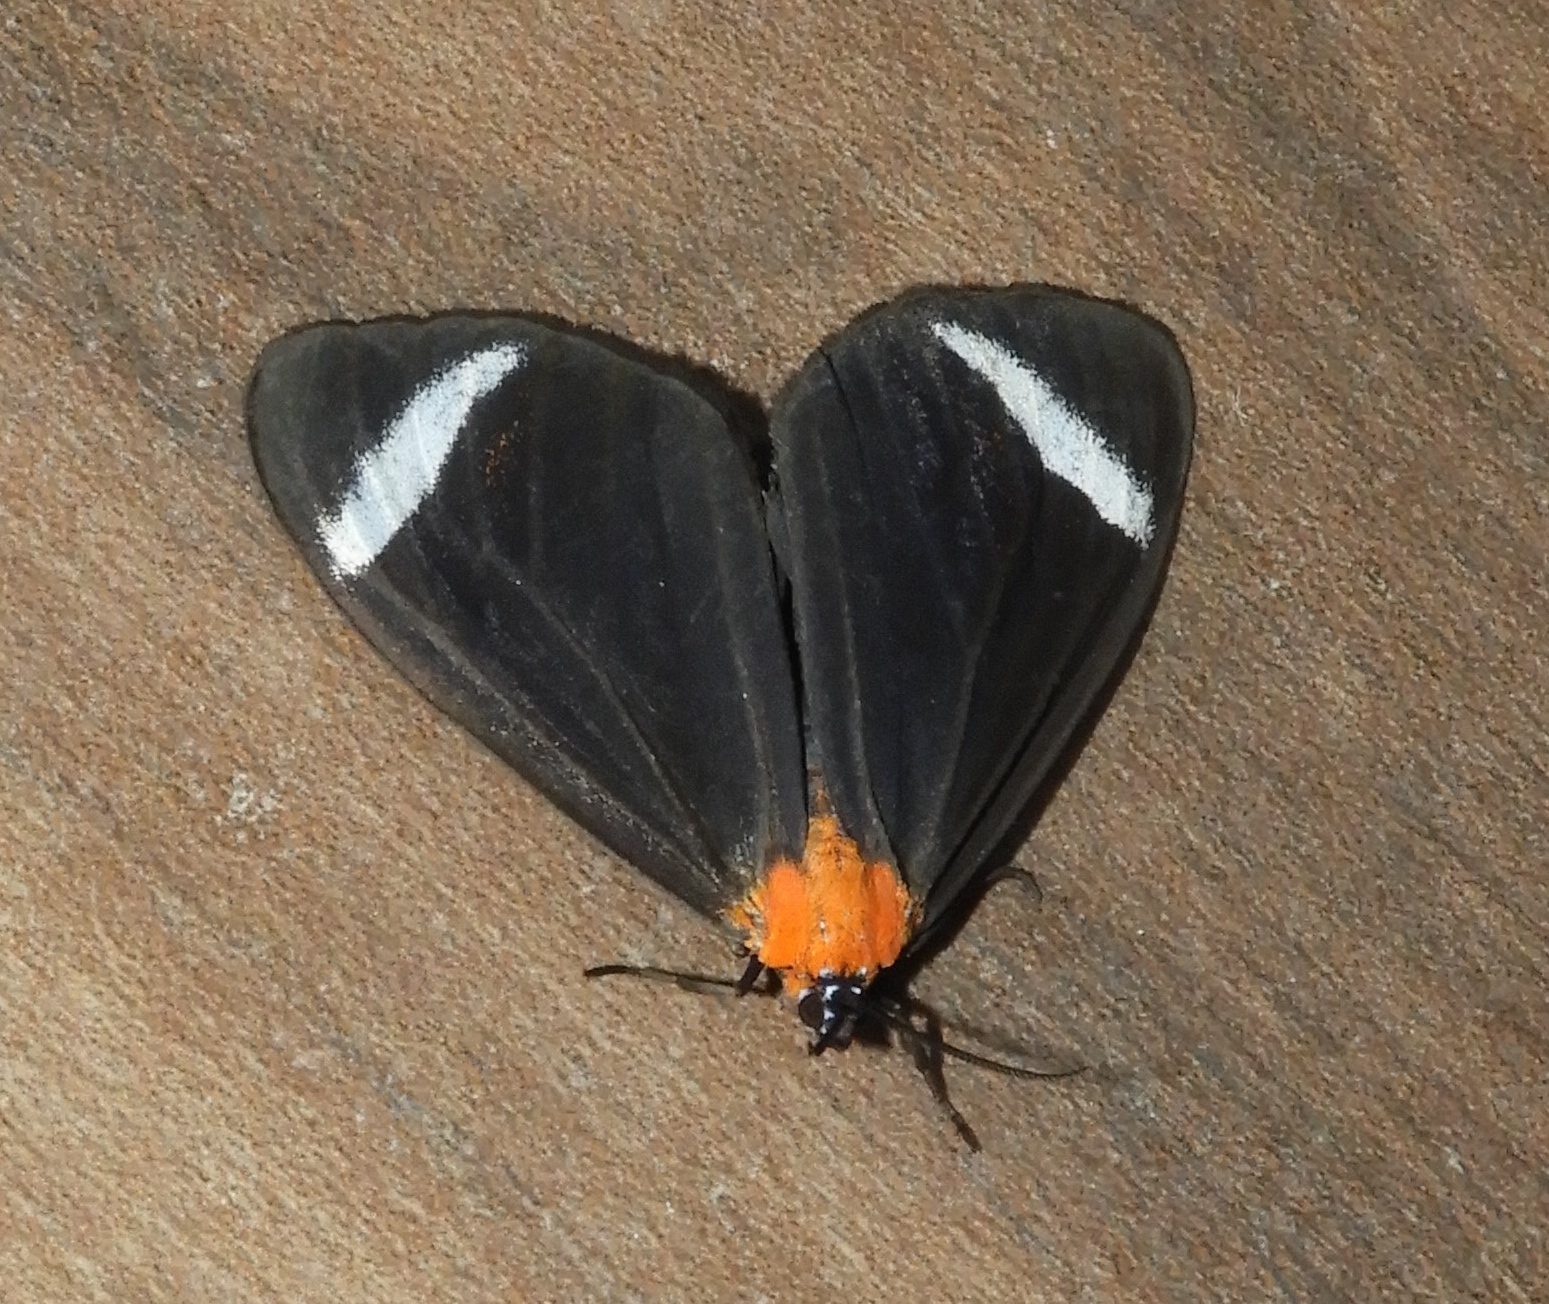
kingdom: Animalia
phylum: Arthropoda
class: Insecta
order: Lepidoptera
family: Erebidae
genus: Hyalurga
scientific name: Hyalurga
